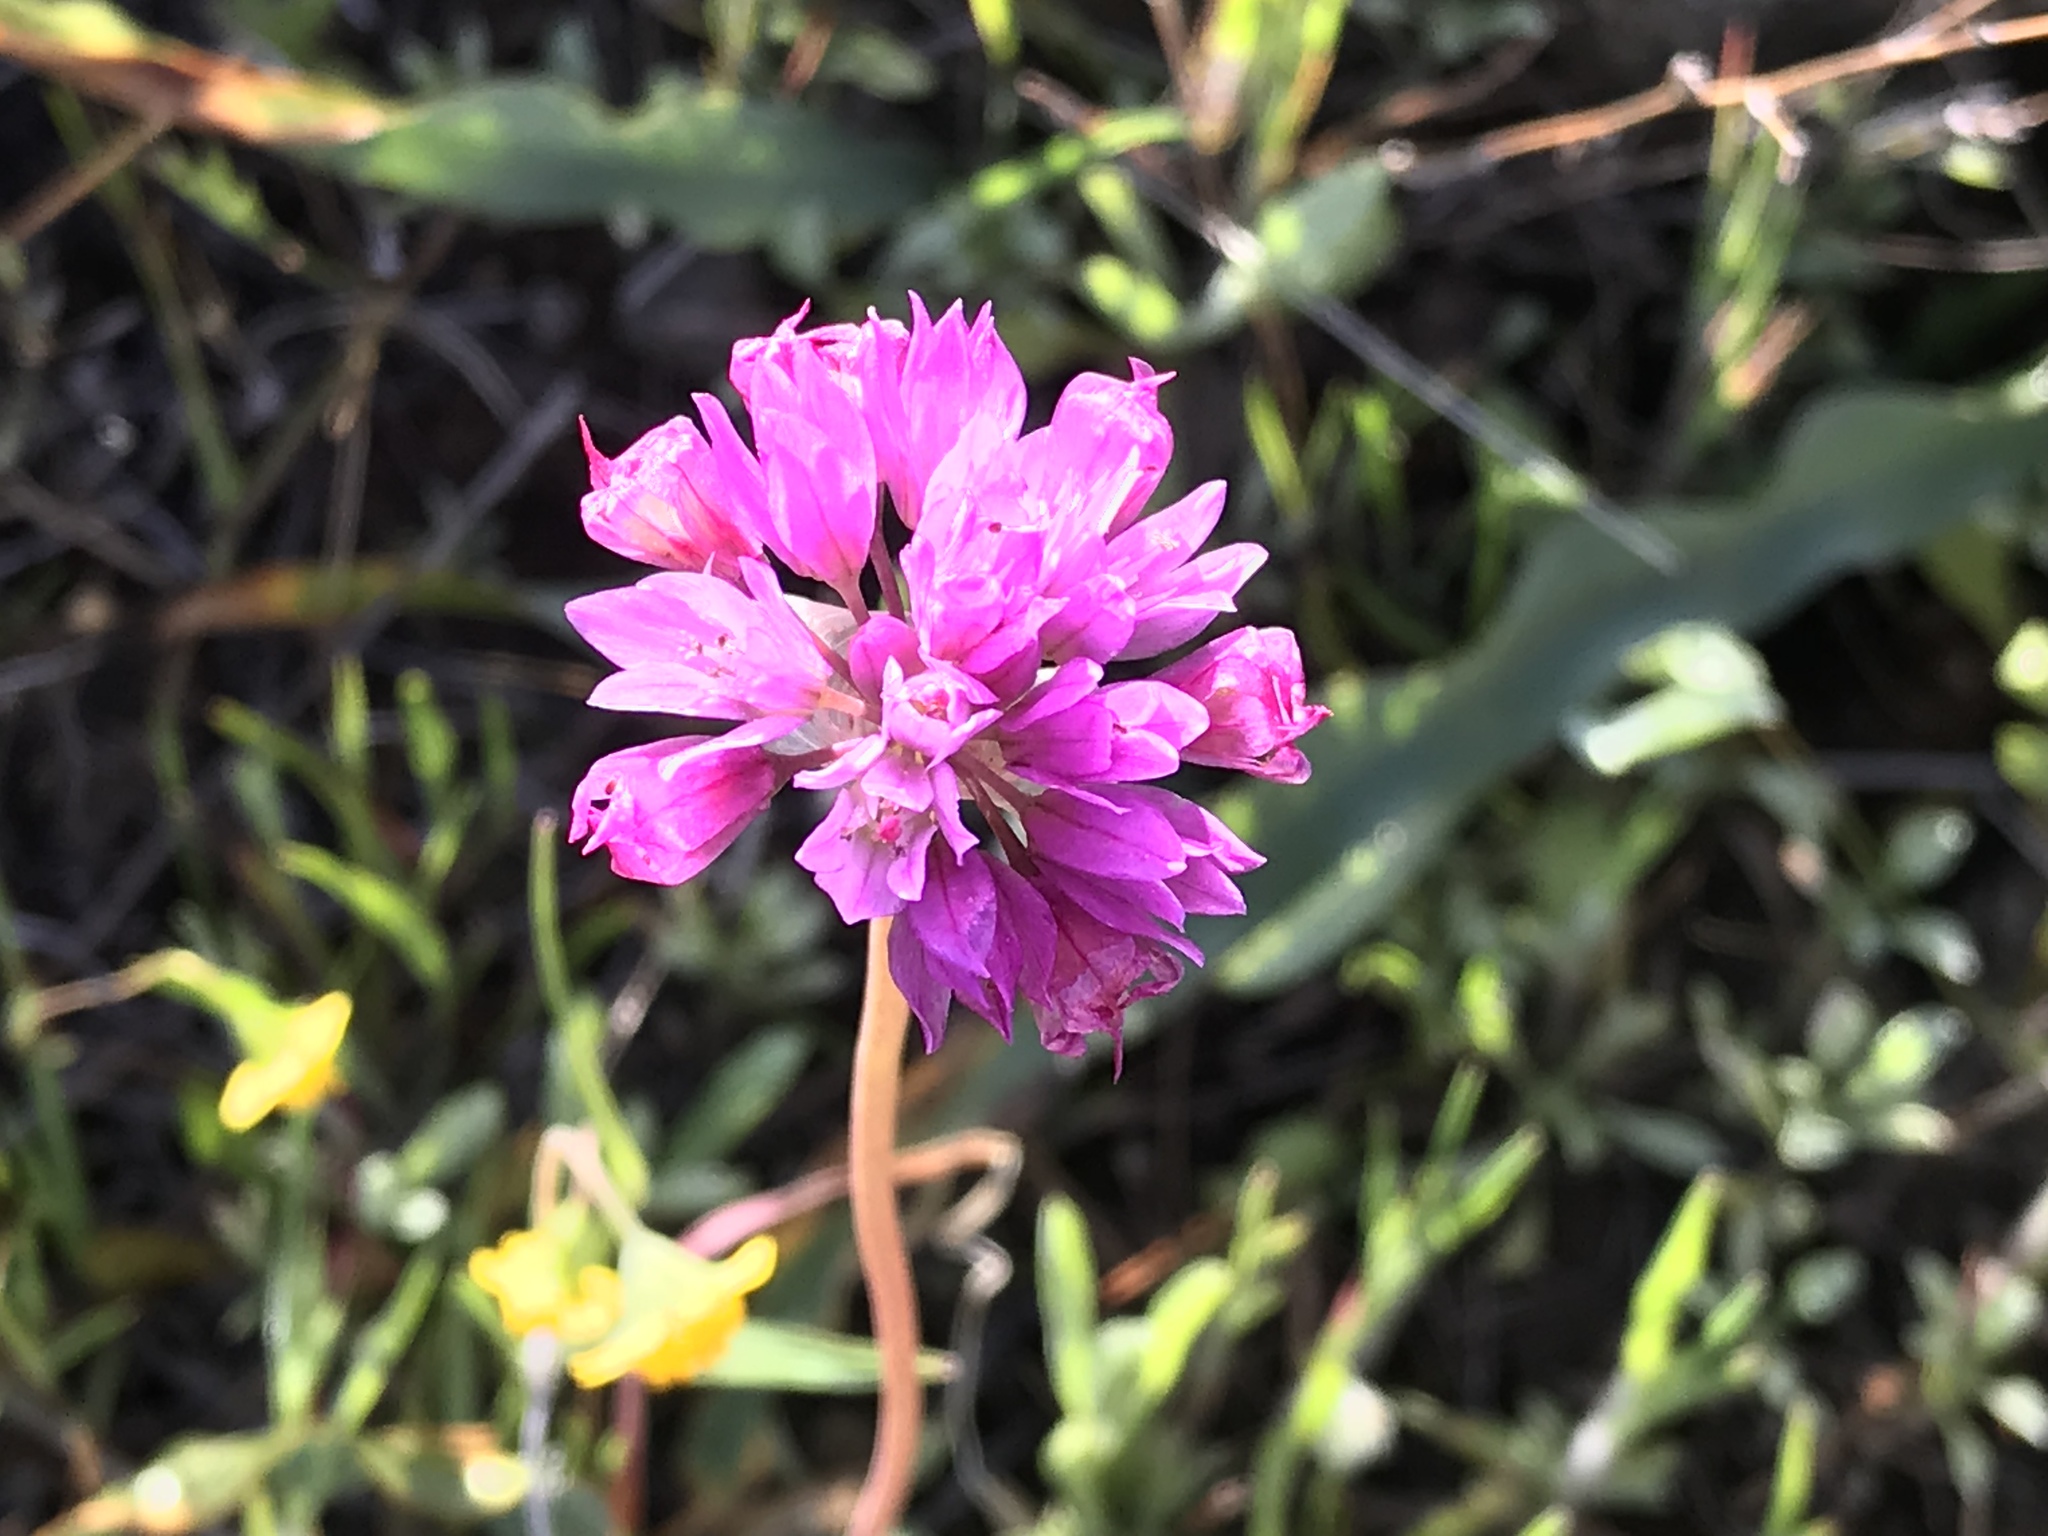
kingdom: Plantae
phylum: Tracheophyta
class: Liliopsida
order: Asparagales
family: Amaryllidaceae
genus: Allium
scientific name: Allium serra
